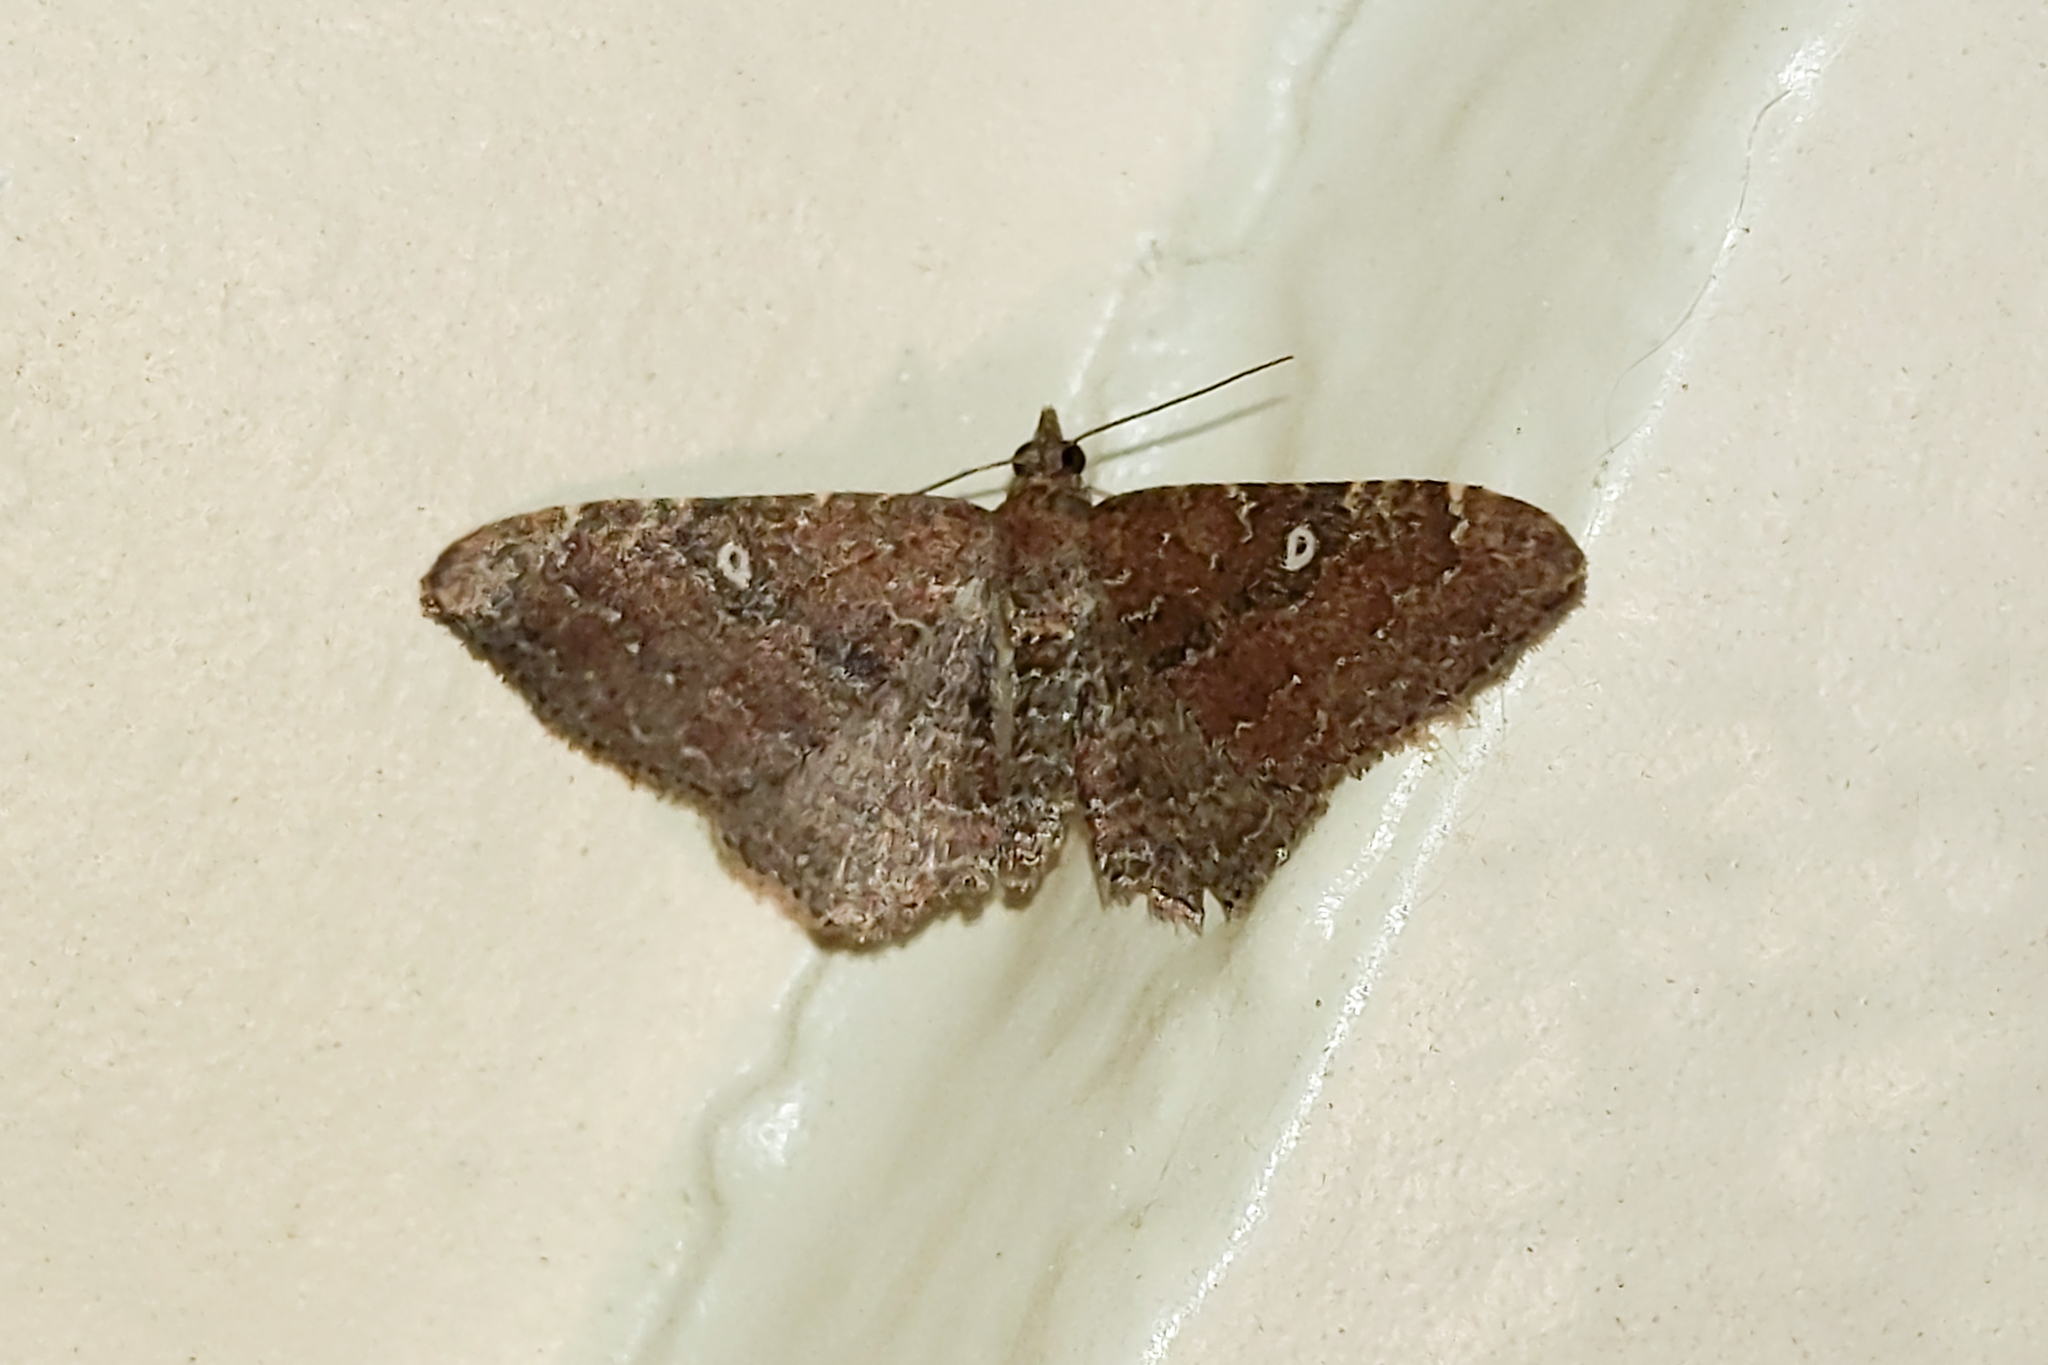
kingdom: Animalia
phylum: Arthropoda
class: Insecta
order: Lepidoptera
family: Geometridae
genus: Orthonama
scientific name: Orthonama obstipata
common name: The gem
